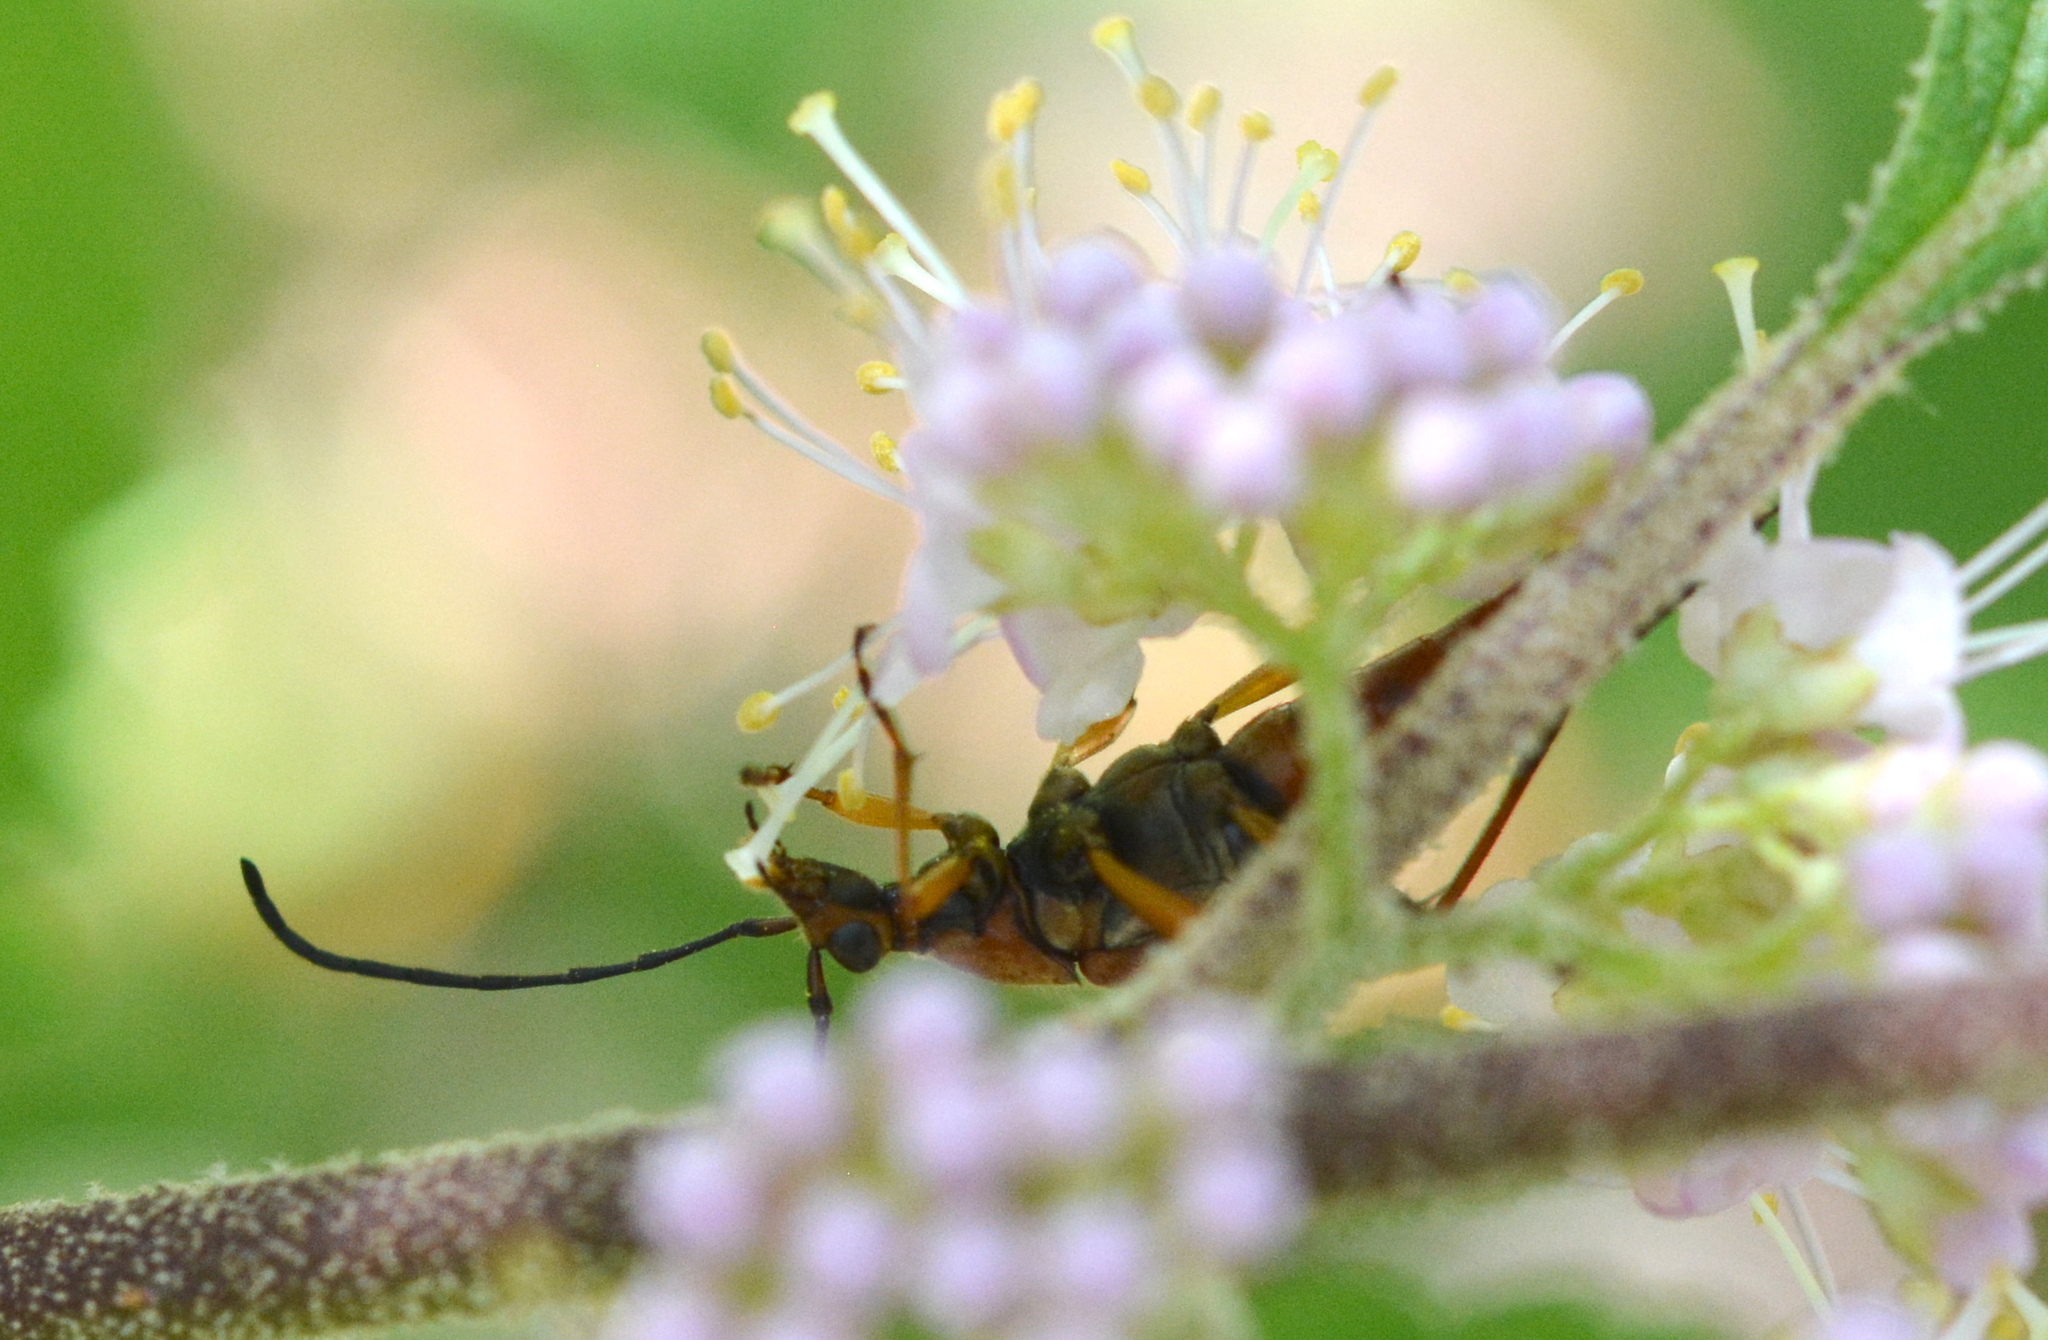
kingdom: Animalia
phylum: Arthropoda
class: Insecta
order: Coleoptera
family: Cerambycidae
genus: Strangalia
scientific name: Strangalia famelica
